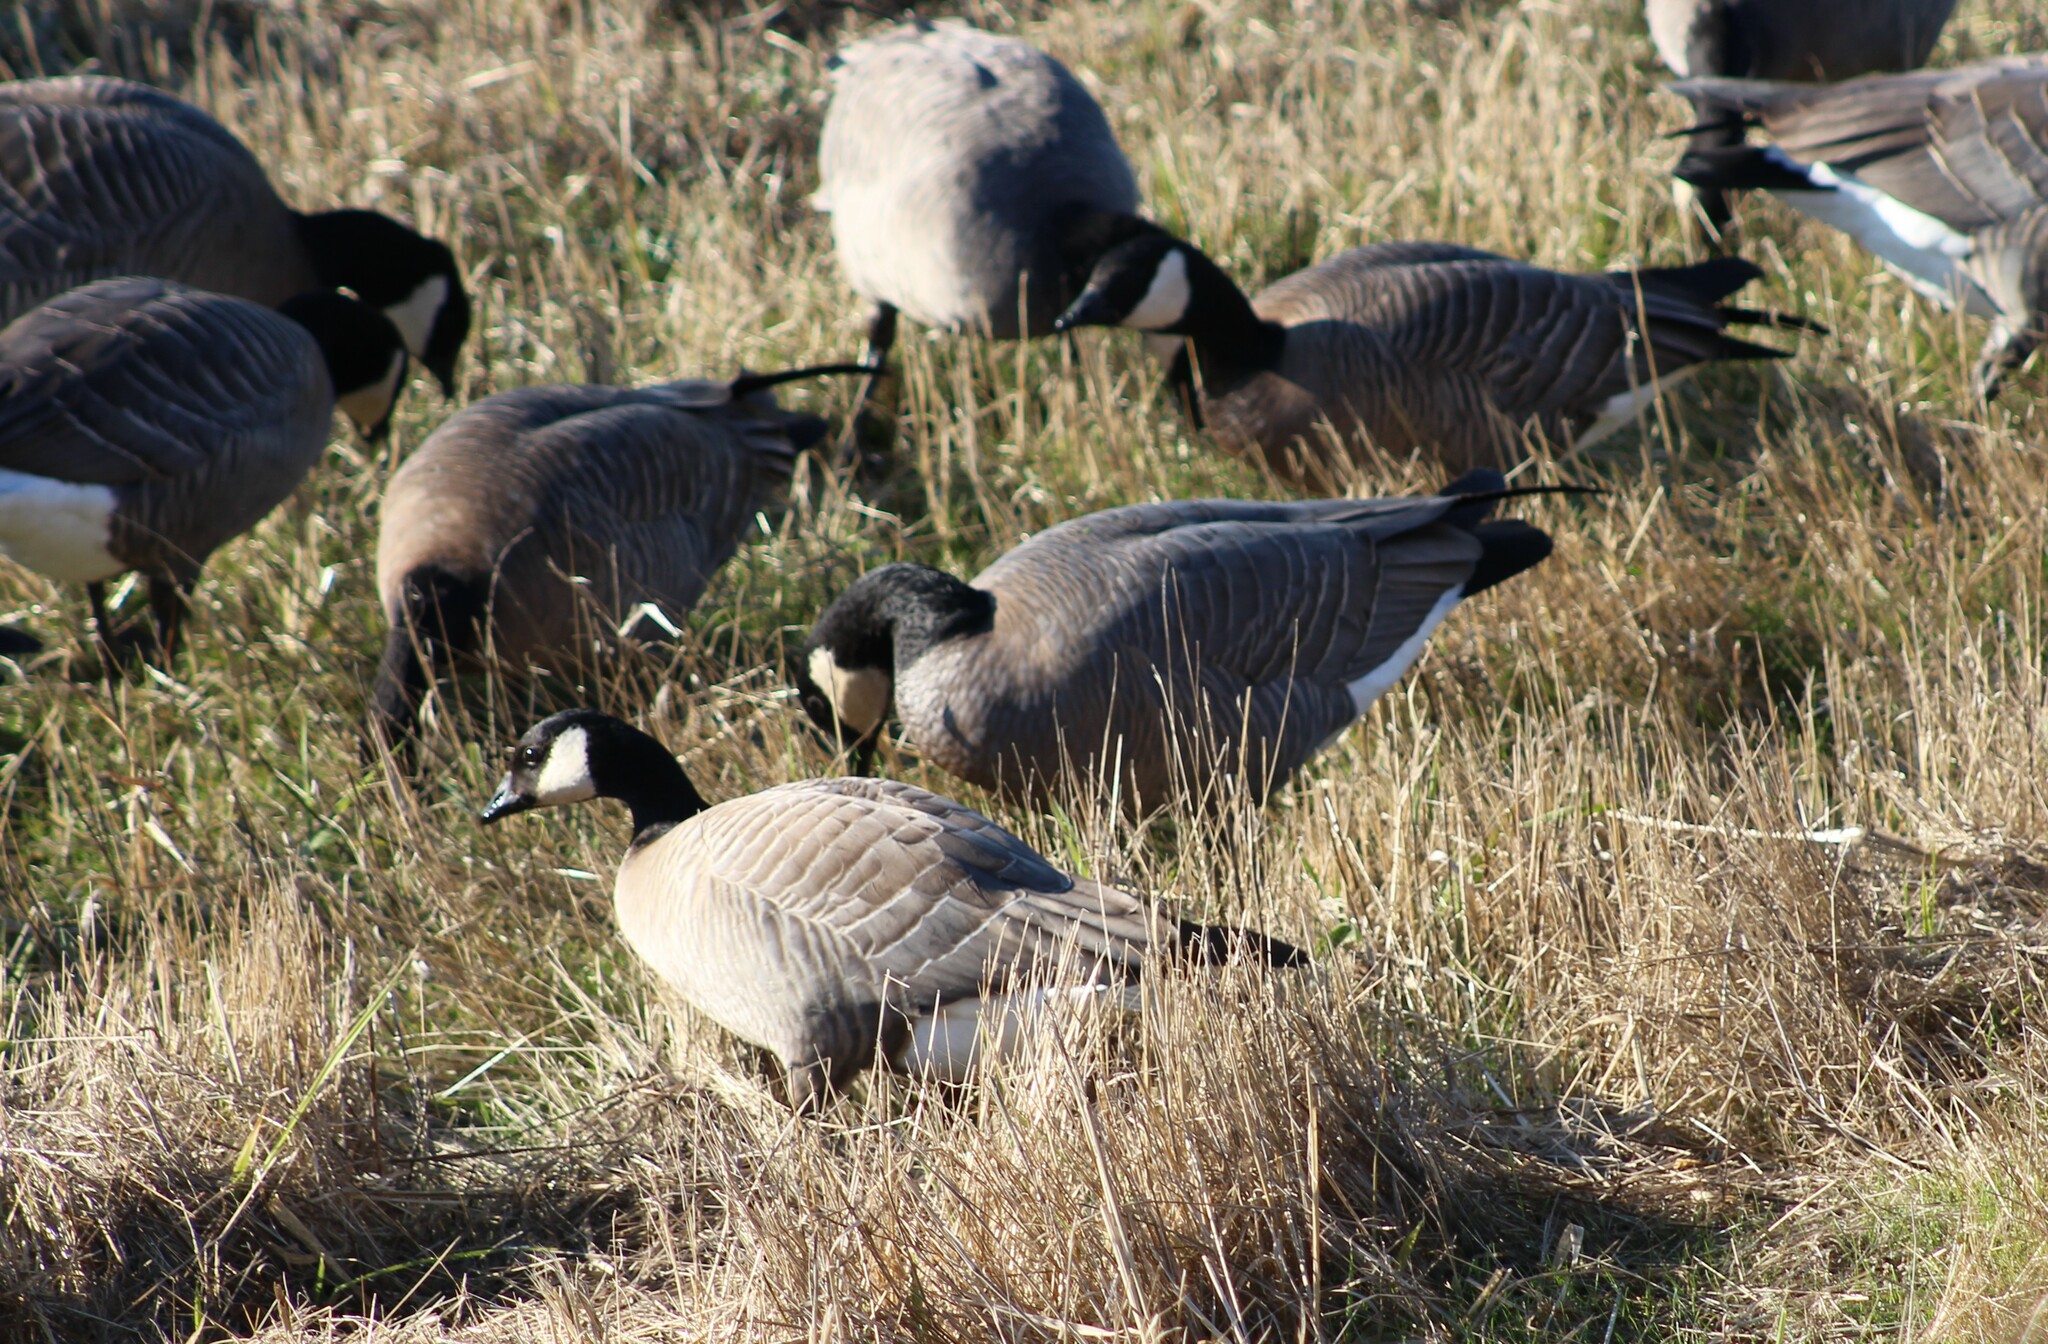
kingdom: Animalia
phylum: Chordata
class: Aves
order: Anseriformes
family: Anatidae
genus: Branta
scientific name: Branta hutchinsii
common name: Cackling goose
